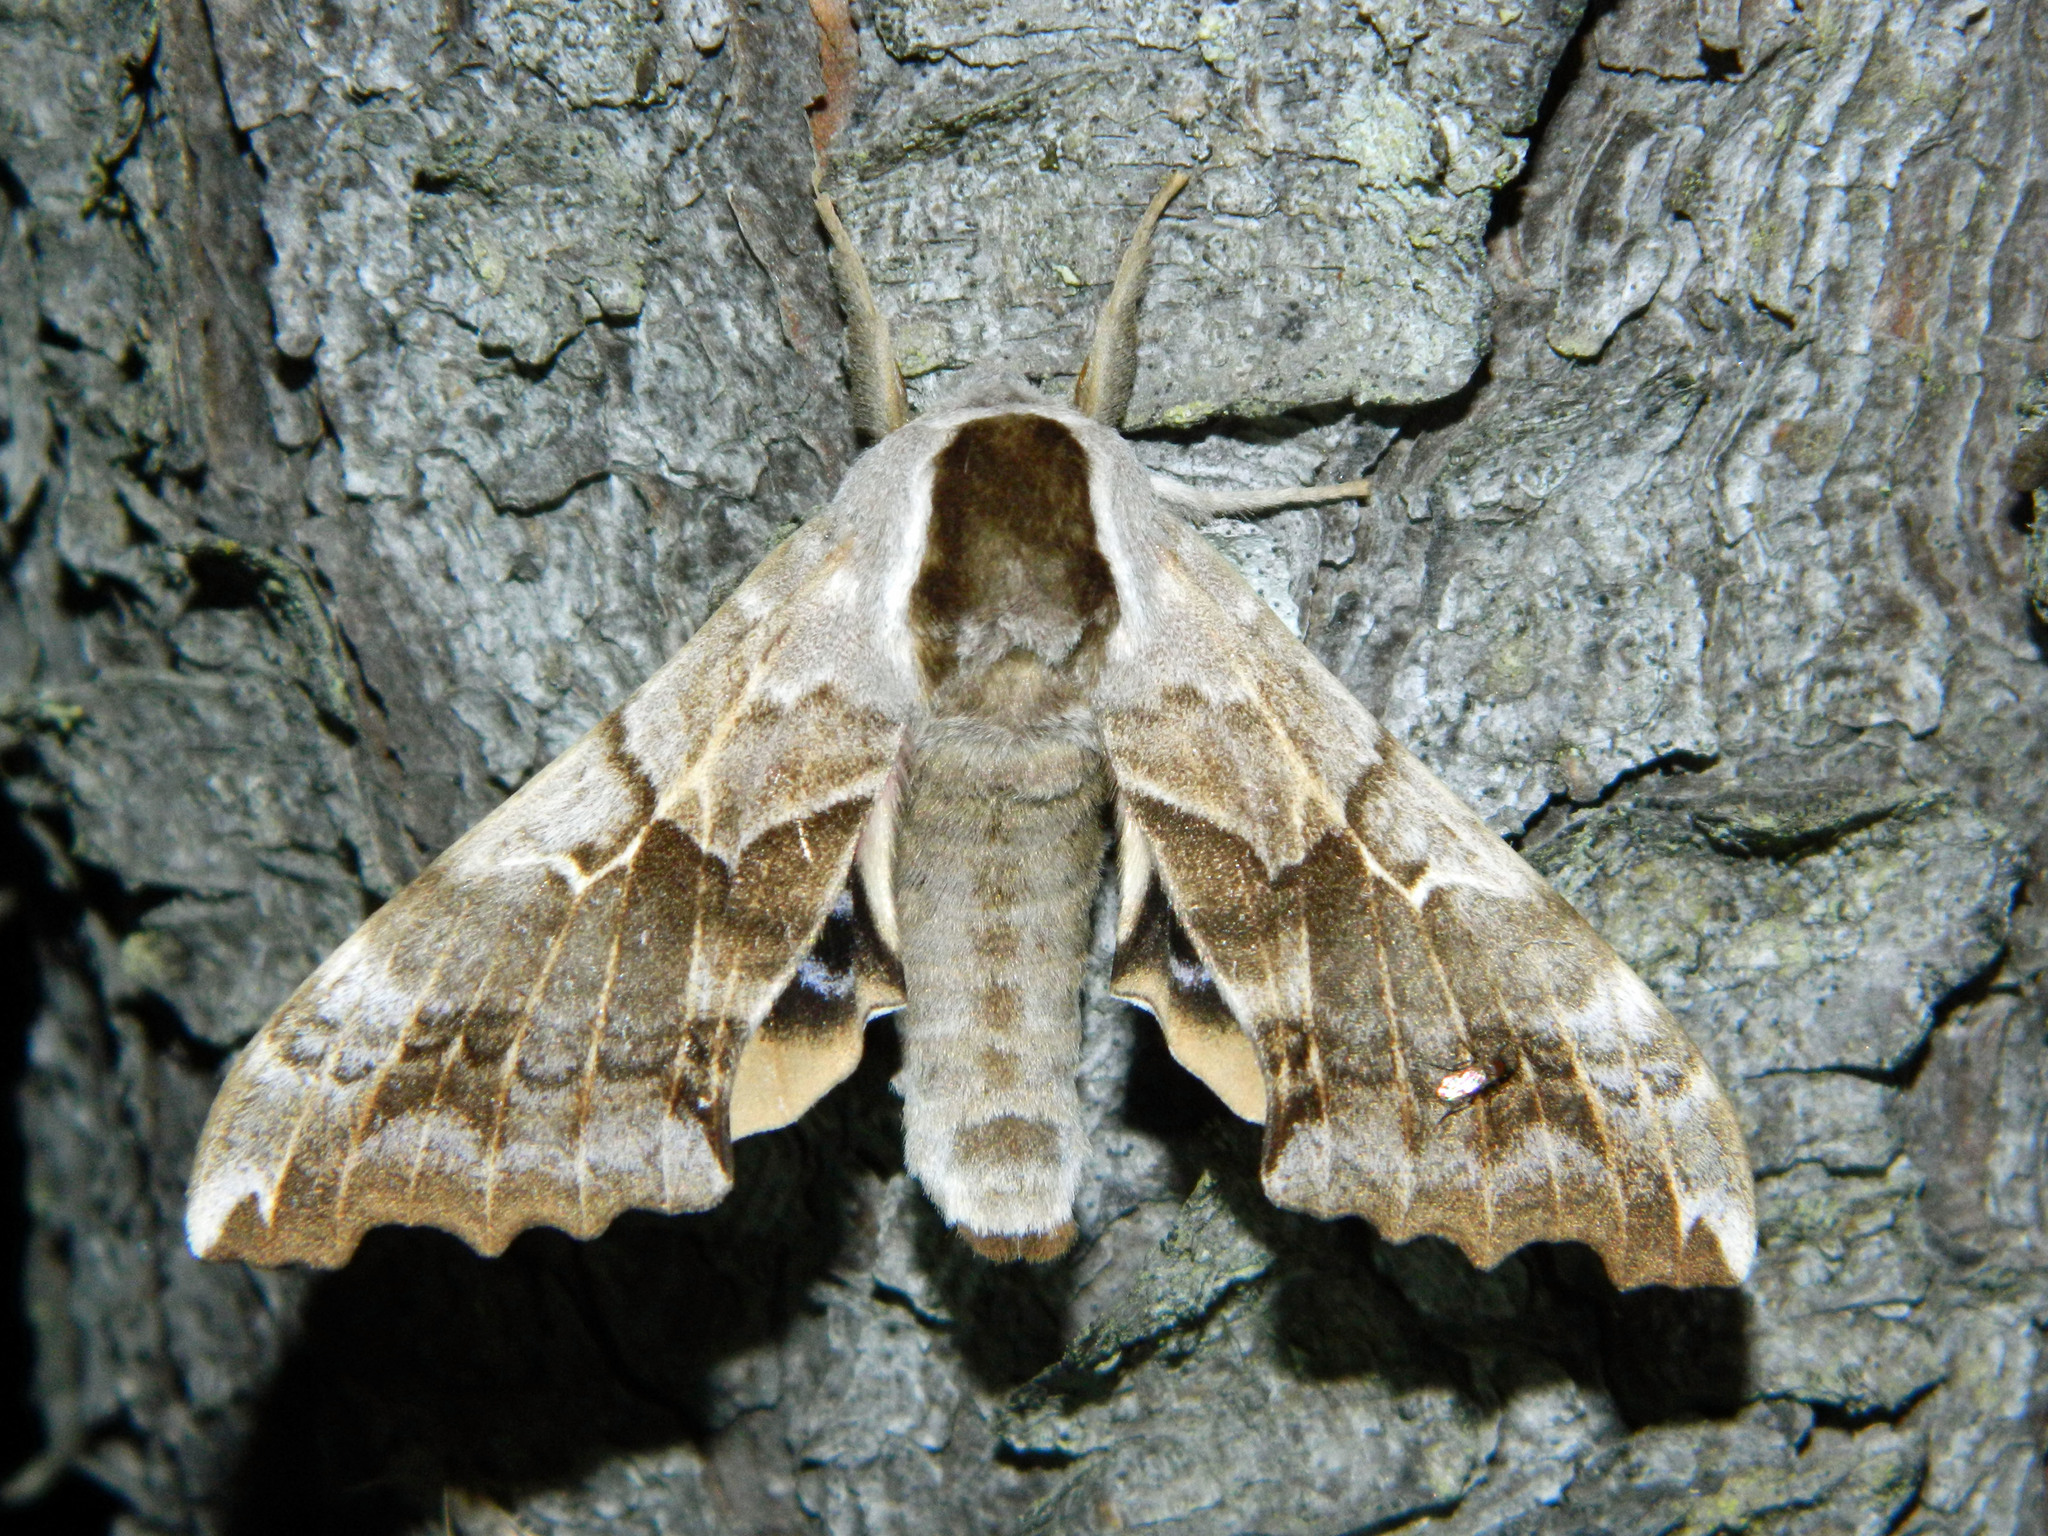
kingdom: Animalia
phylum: Arthropoda
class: Insecta
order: Lepidoptera
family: Sphingidae
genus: Smerinthus
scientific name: Smerinthus cerisyi
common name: Cerisy's sphinx moth
